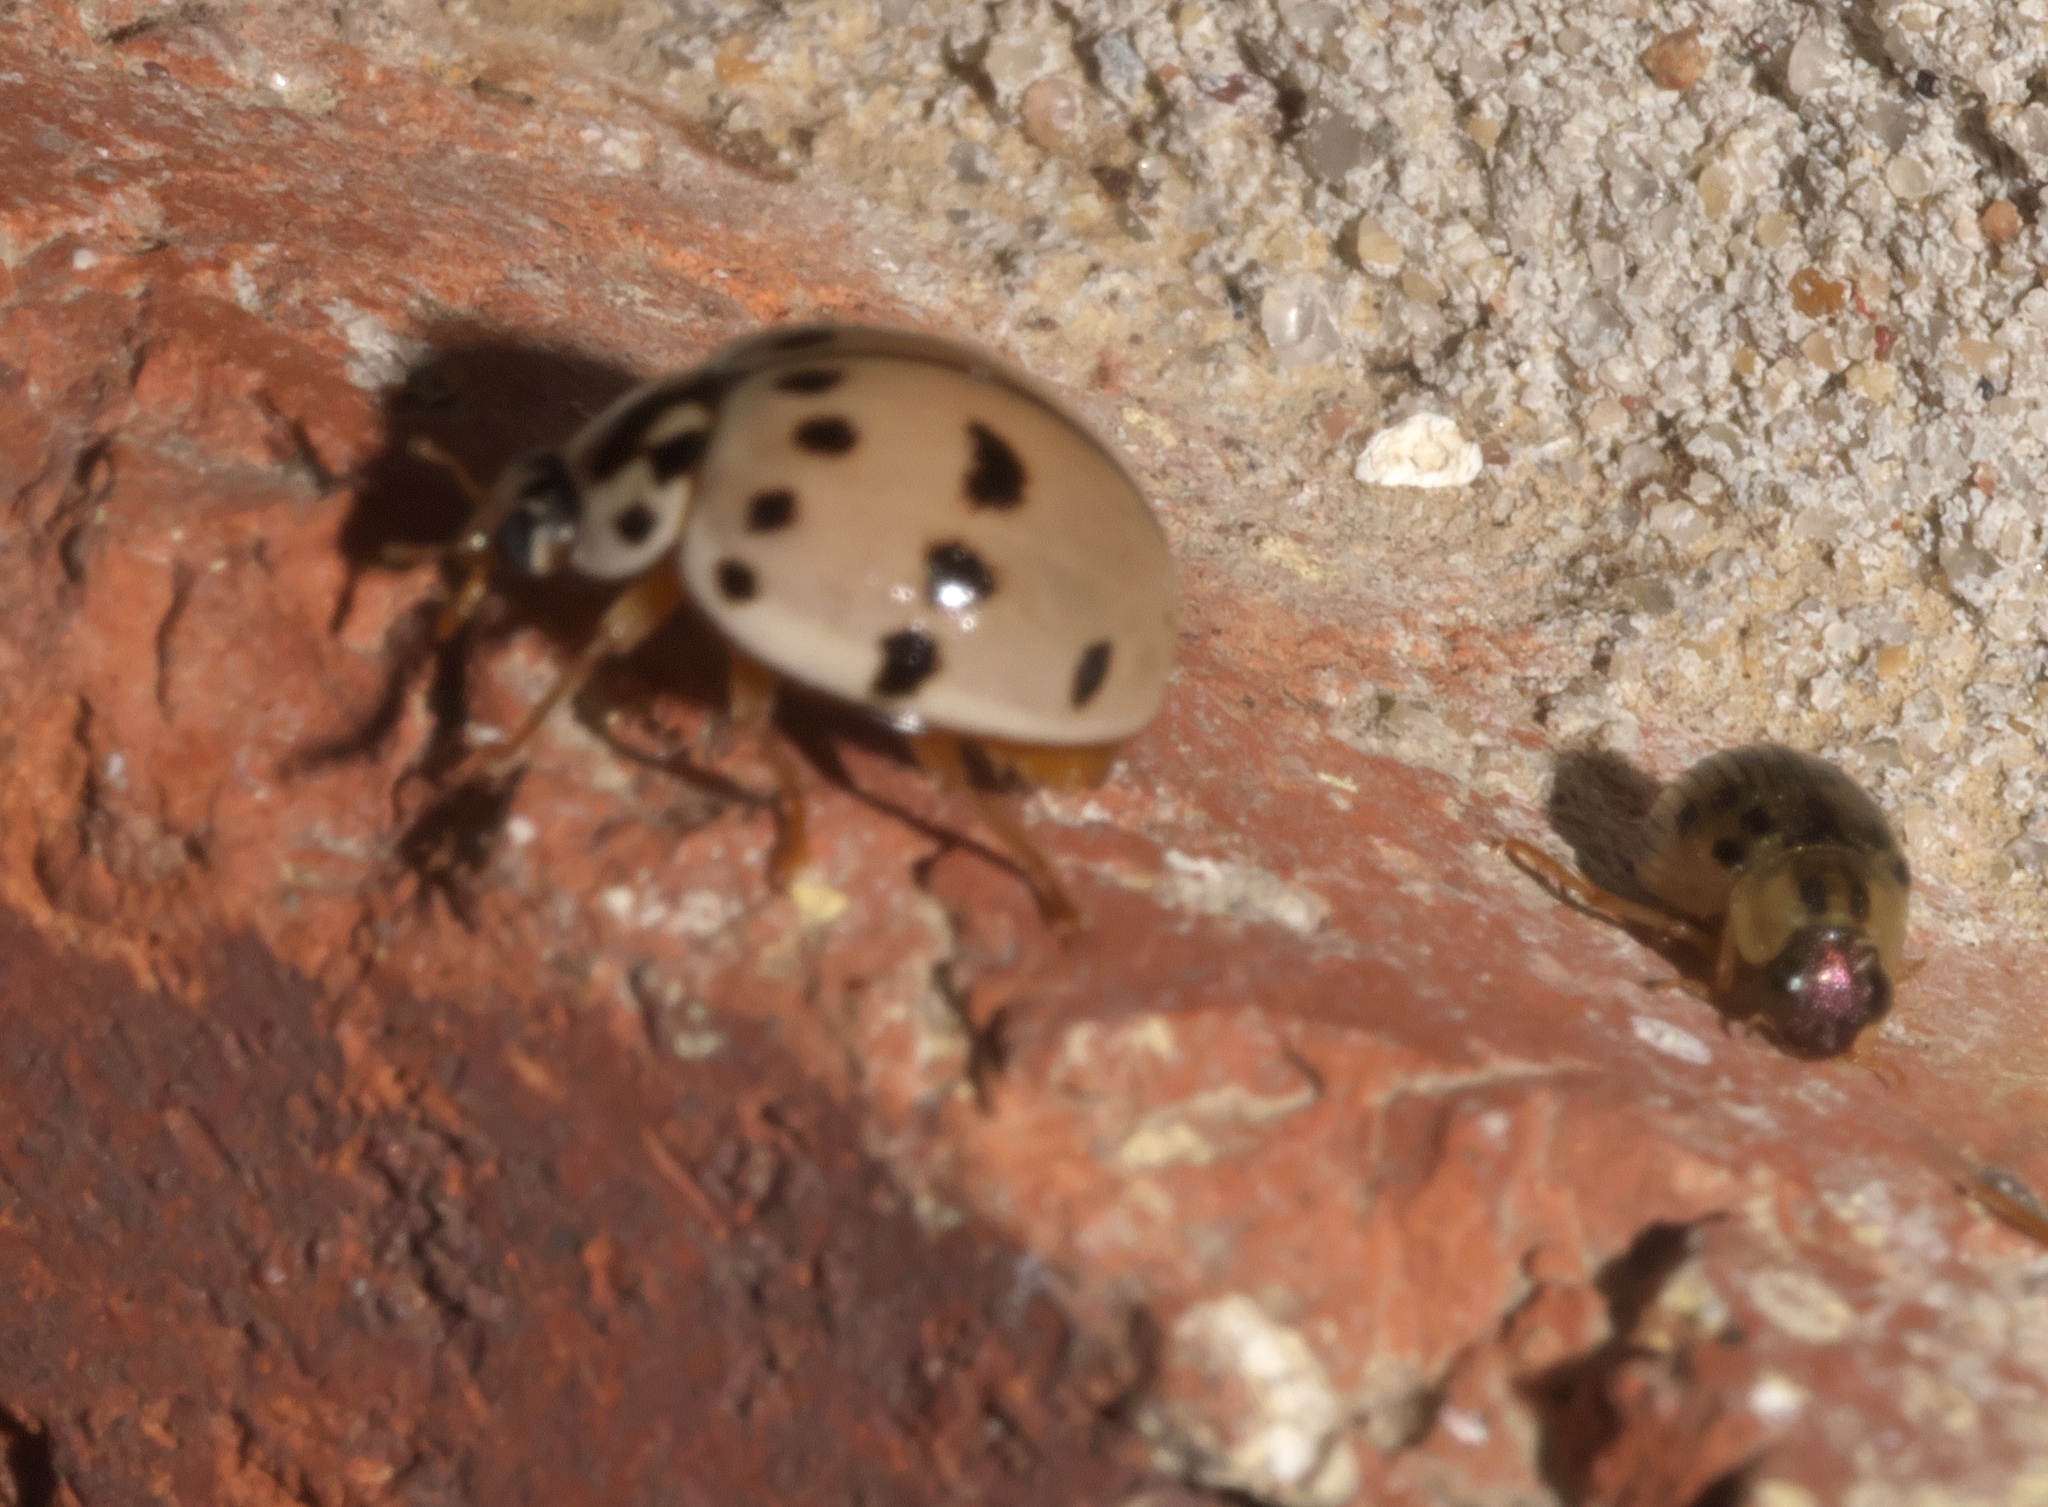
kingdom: Animalia
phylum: Arthropoda
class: Insecta
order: Coleoptera
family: Coccinellidae
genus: Olla
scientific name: Olla v-nigrum
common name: Ashy gray lady beetle
